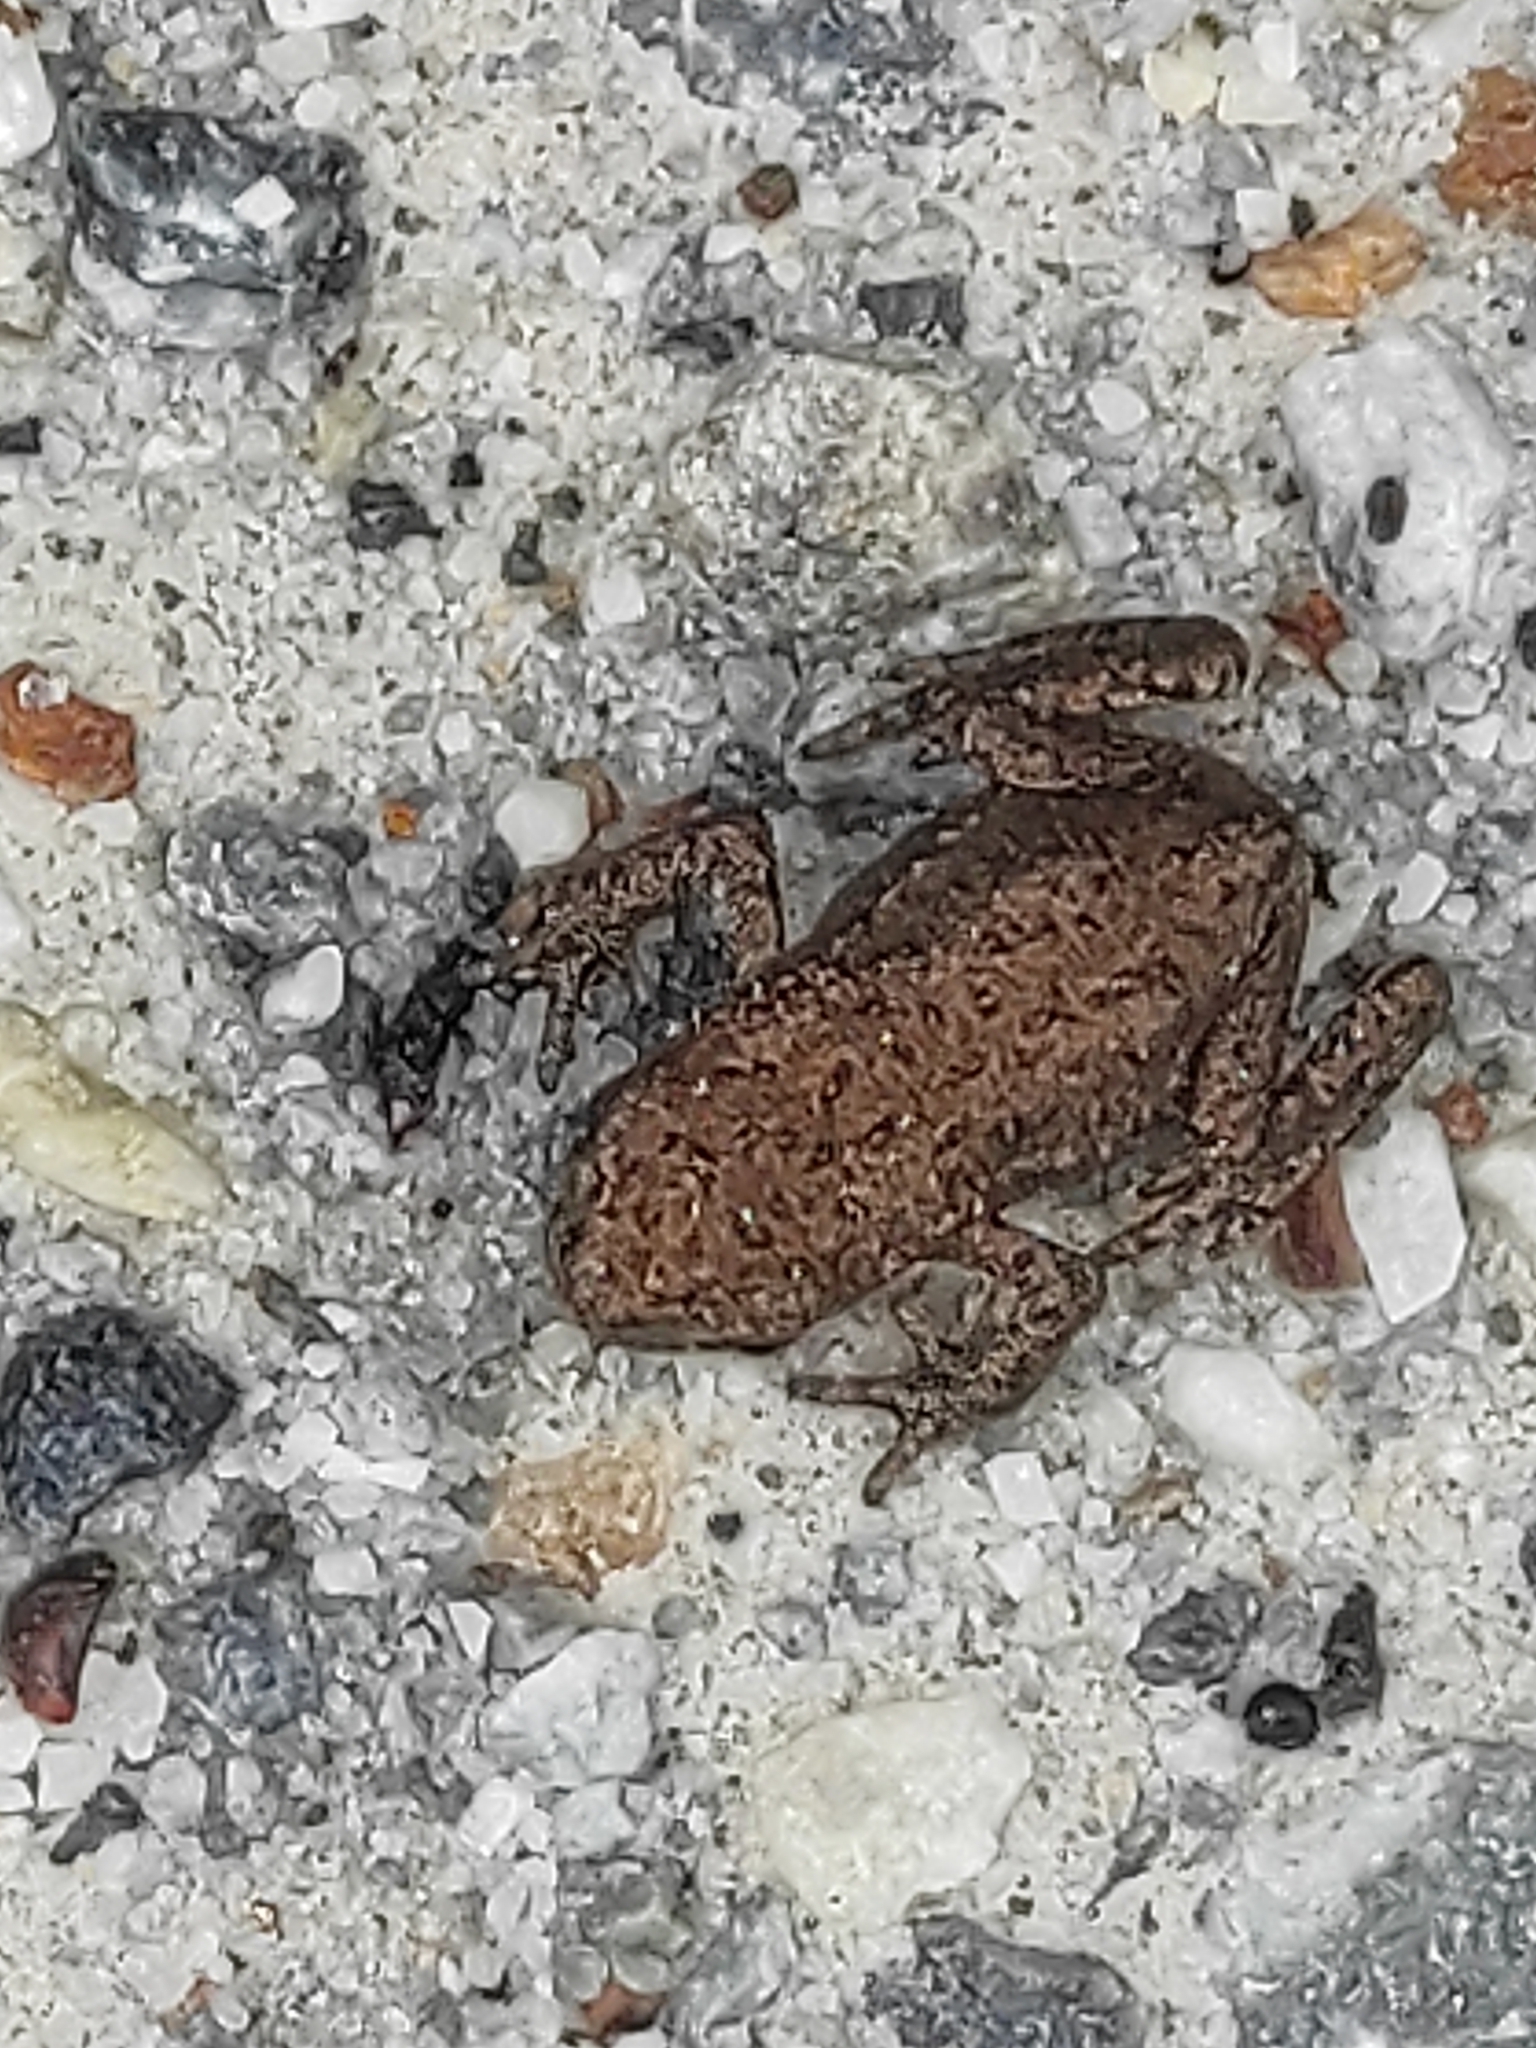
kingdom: Animalia
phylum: Chordata
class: Amphibia
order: Anura
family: Bufonidae
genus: Bufo
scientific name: Bufo bufo
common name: Common toad
